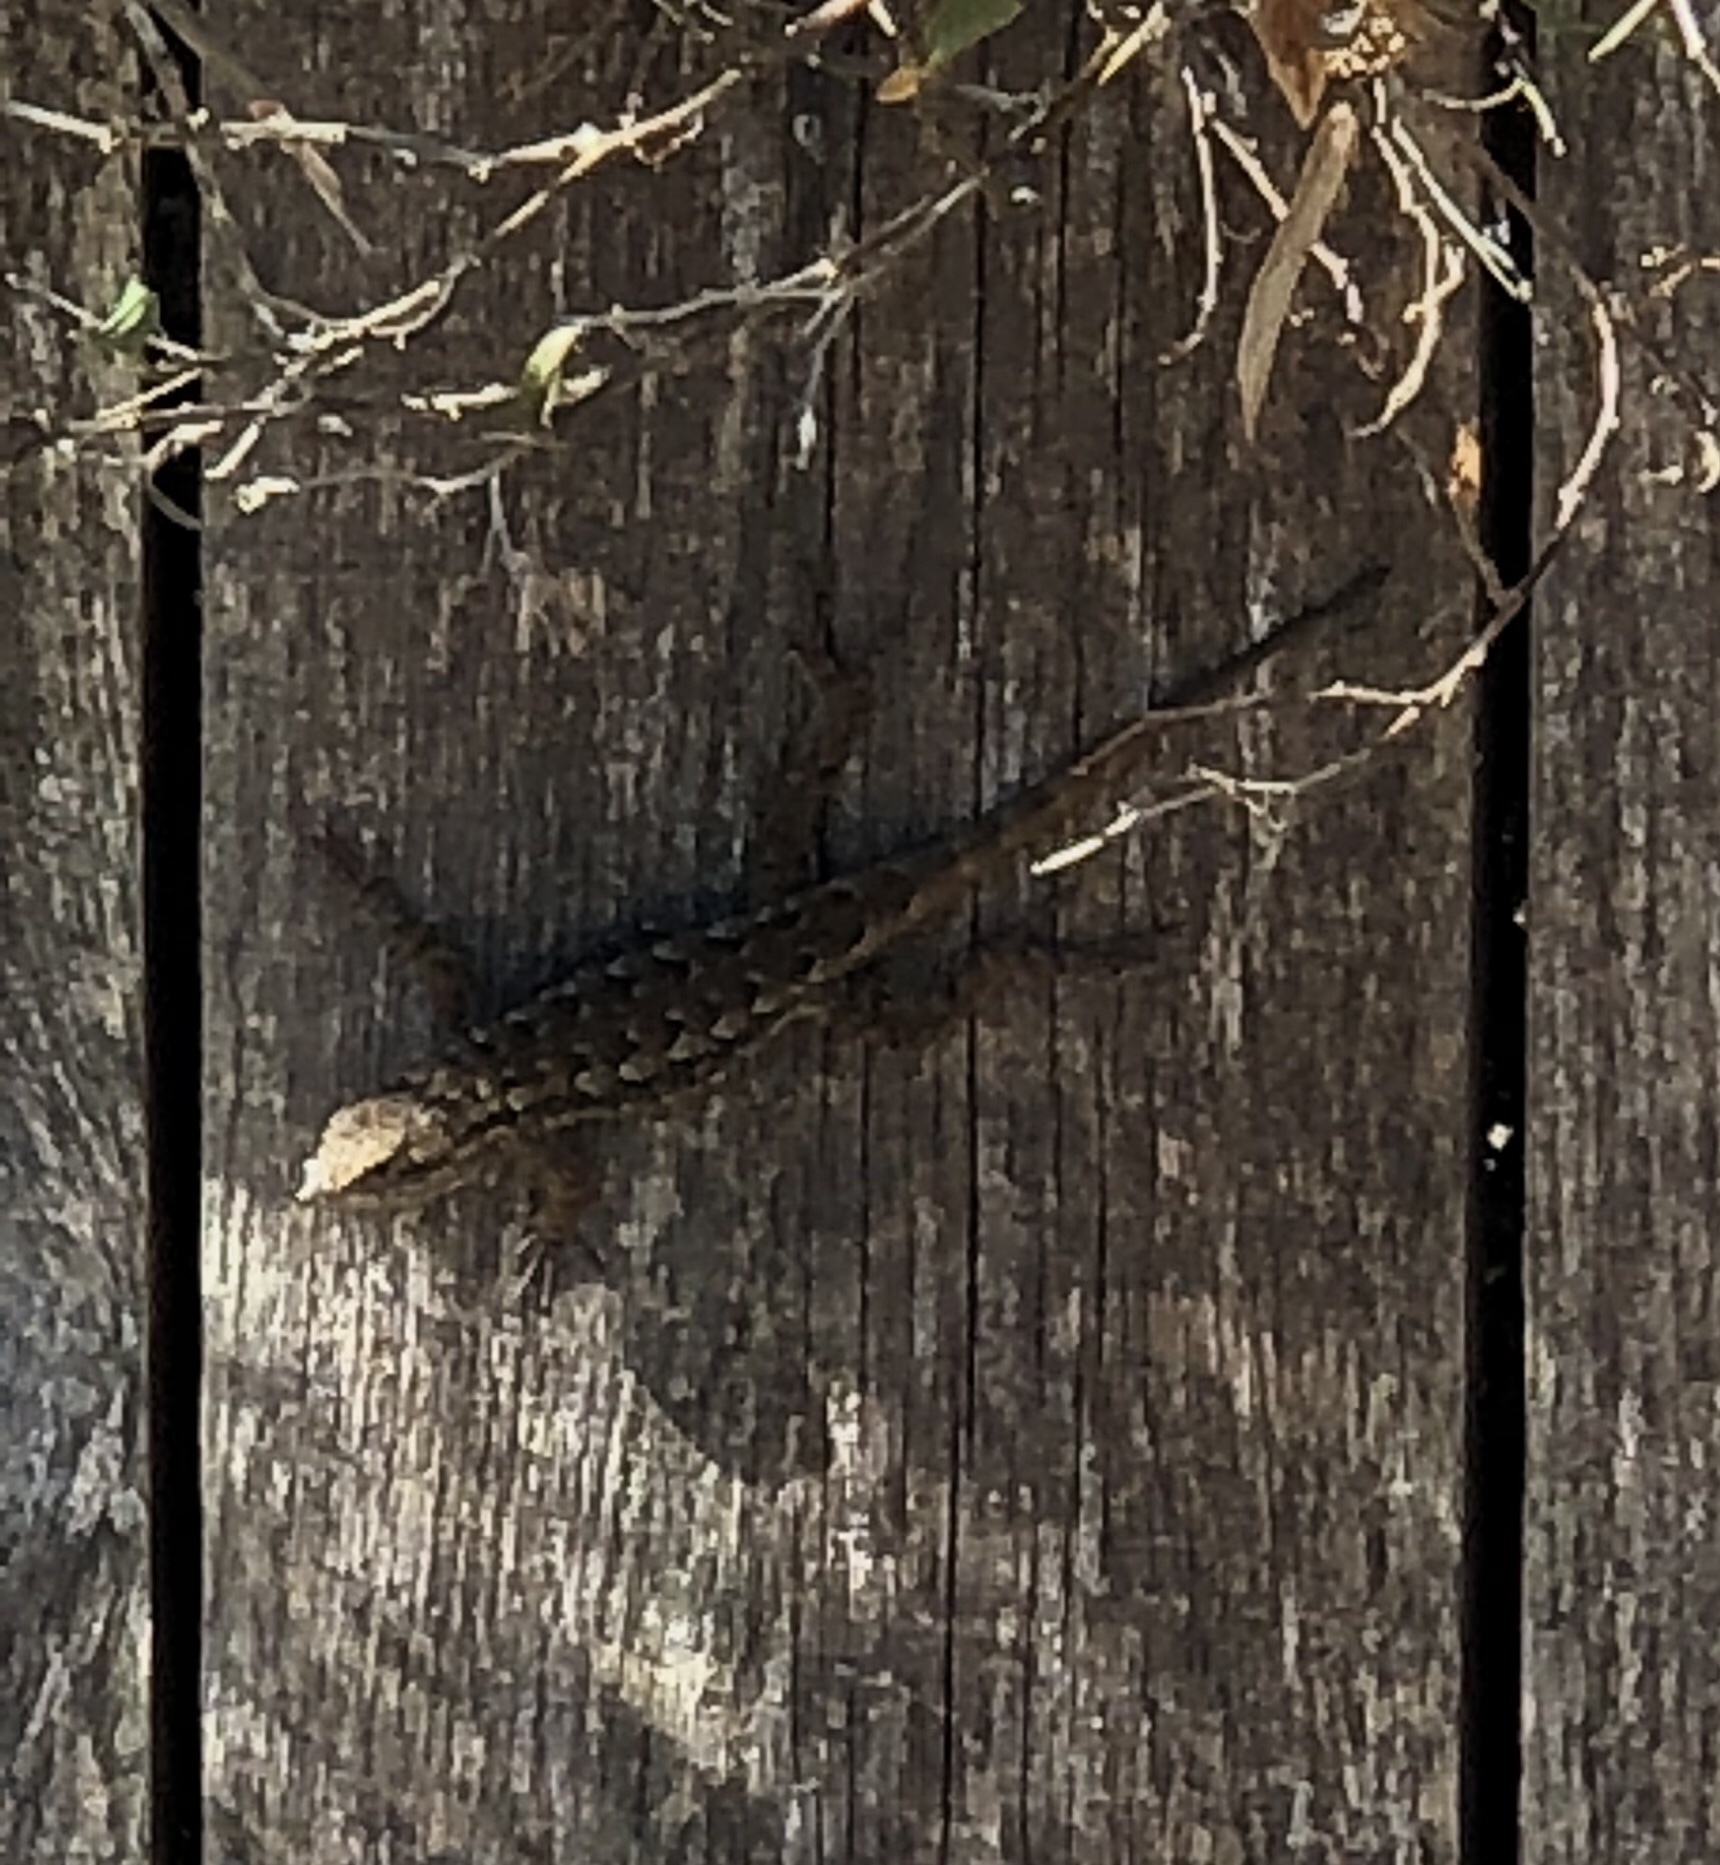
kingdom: Animalia
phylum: Chordata
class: Squamata
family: Phrynosomatidae
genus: Sceloporus
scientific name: Sceloporus occidentalis
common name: Western fence lizard
